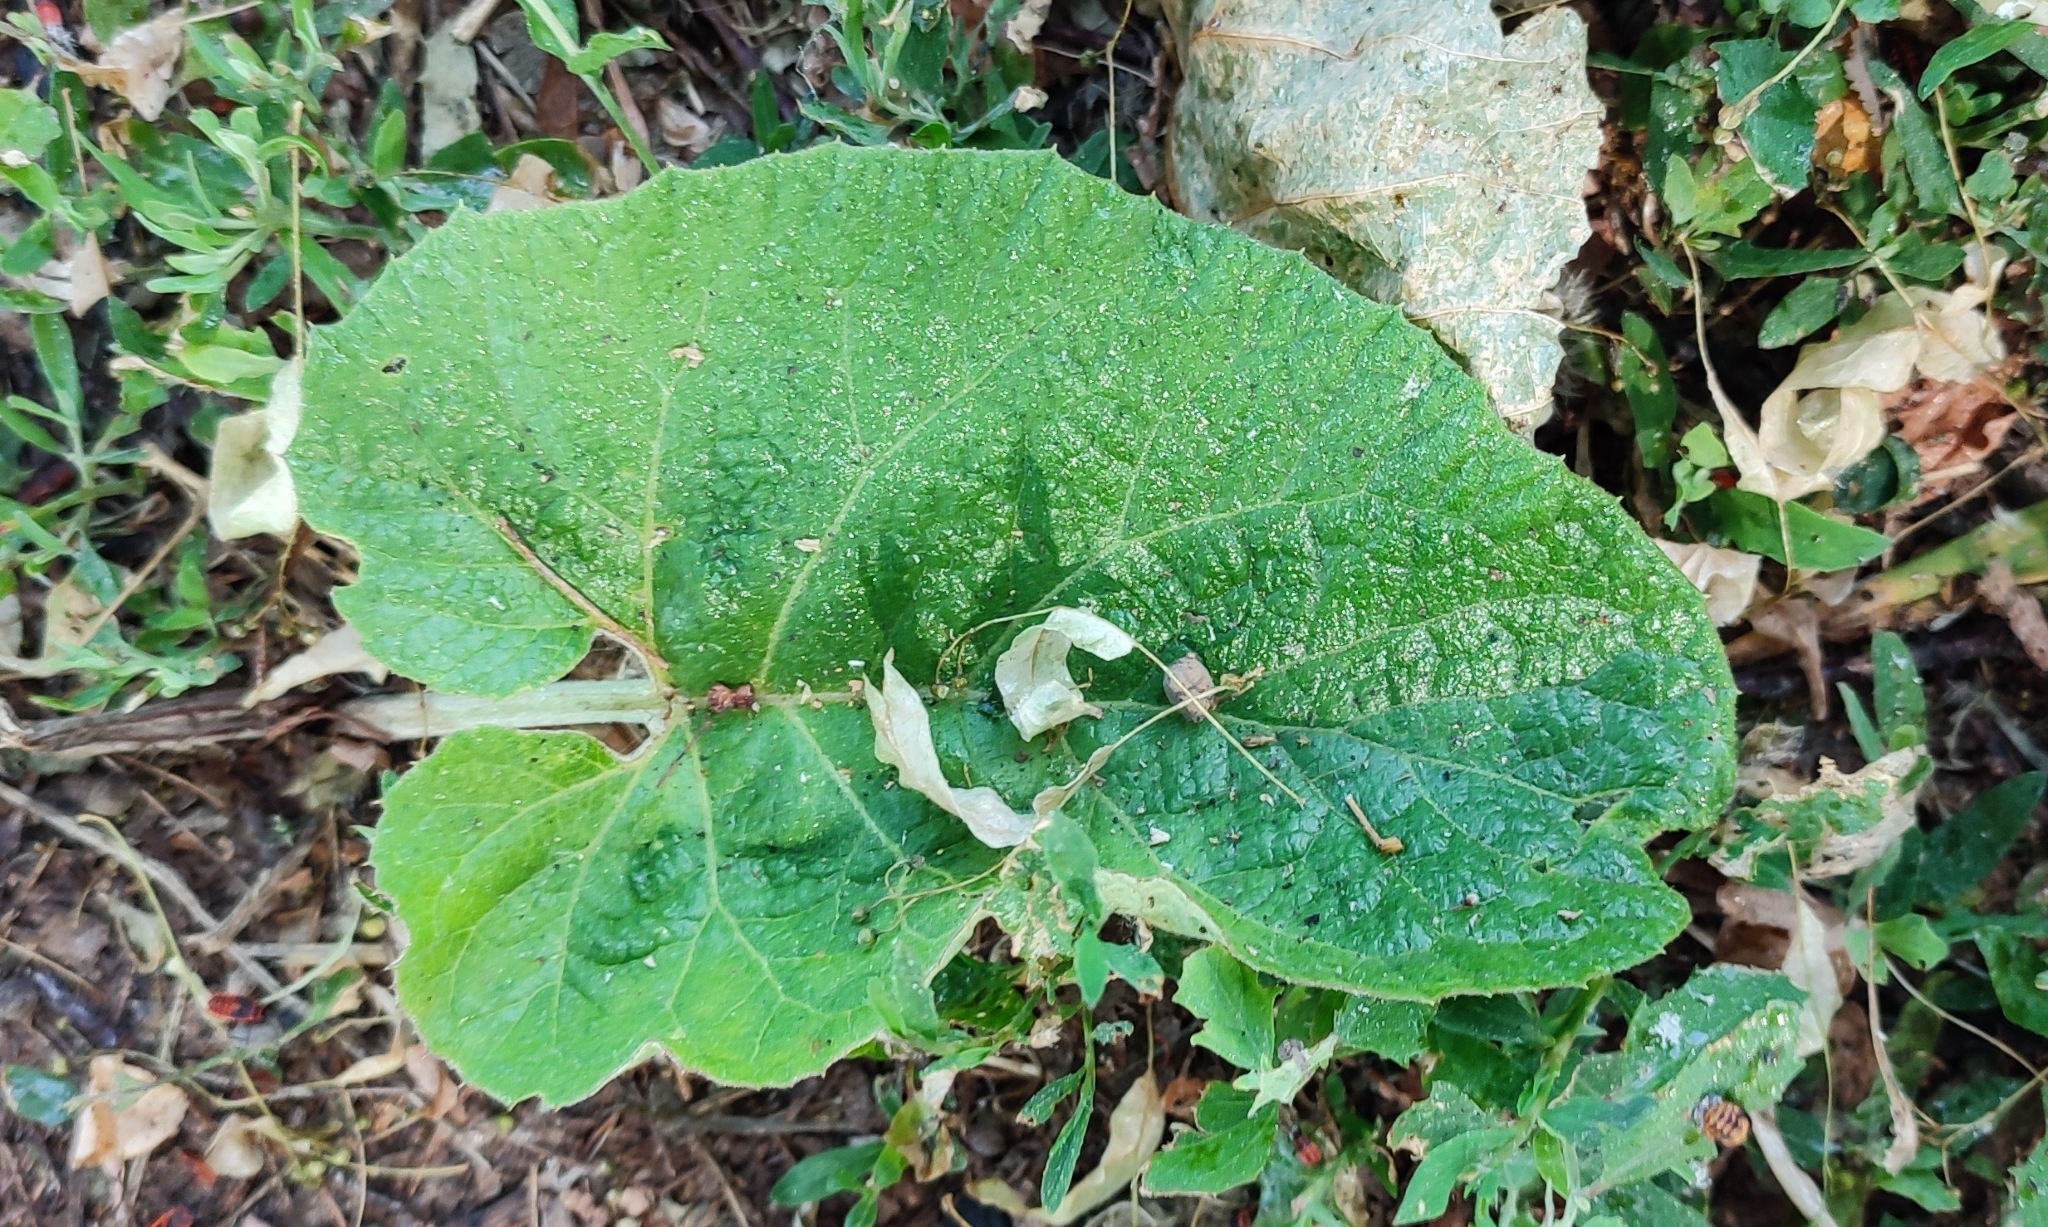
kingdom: Plantae
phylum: Tracheophyta
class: Magnoliopsida
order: Asterales
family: Asteraceae
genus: Arctium
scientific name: Arctium tomentosum
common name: Woolly burdock
